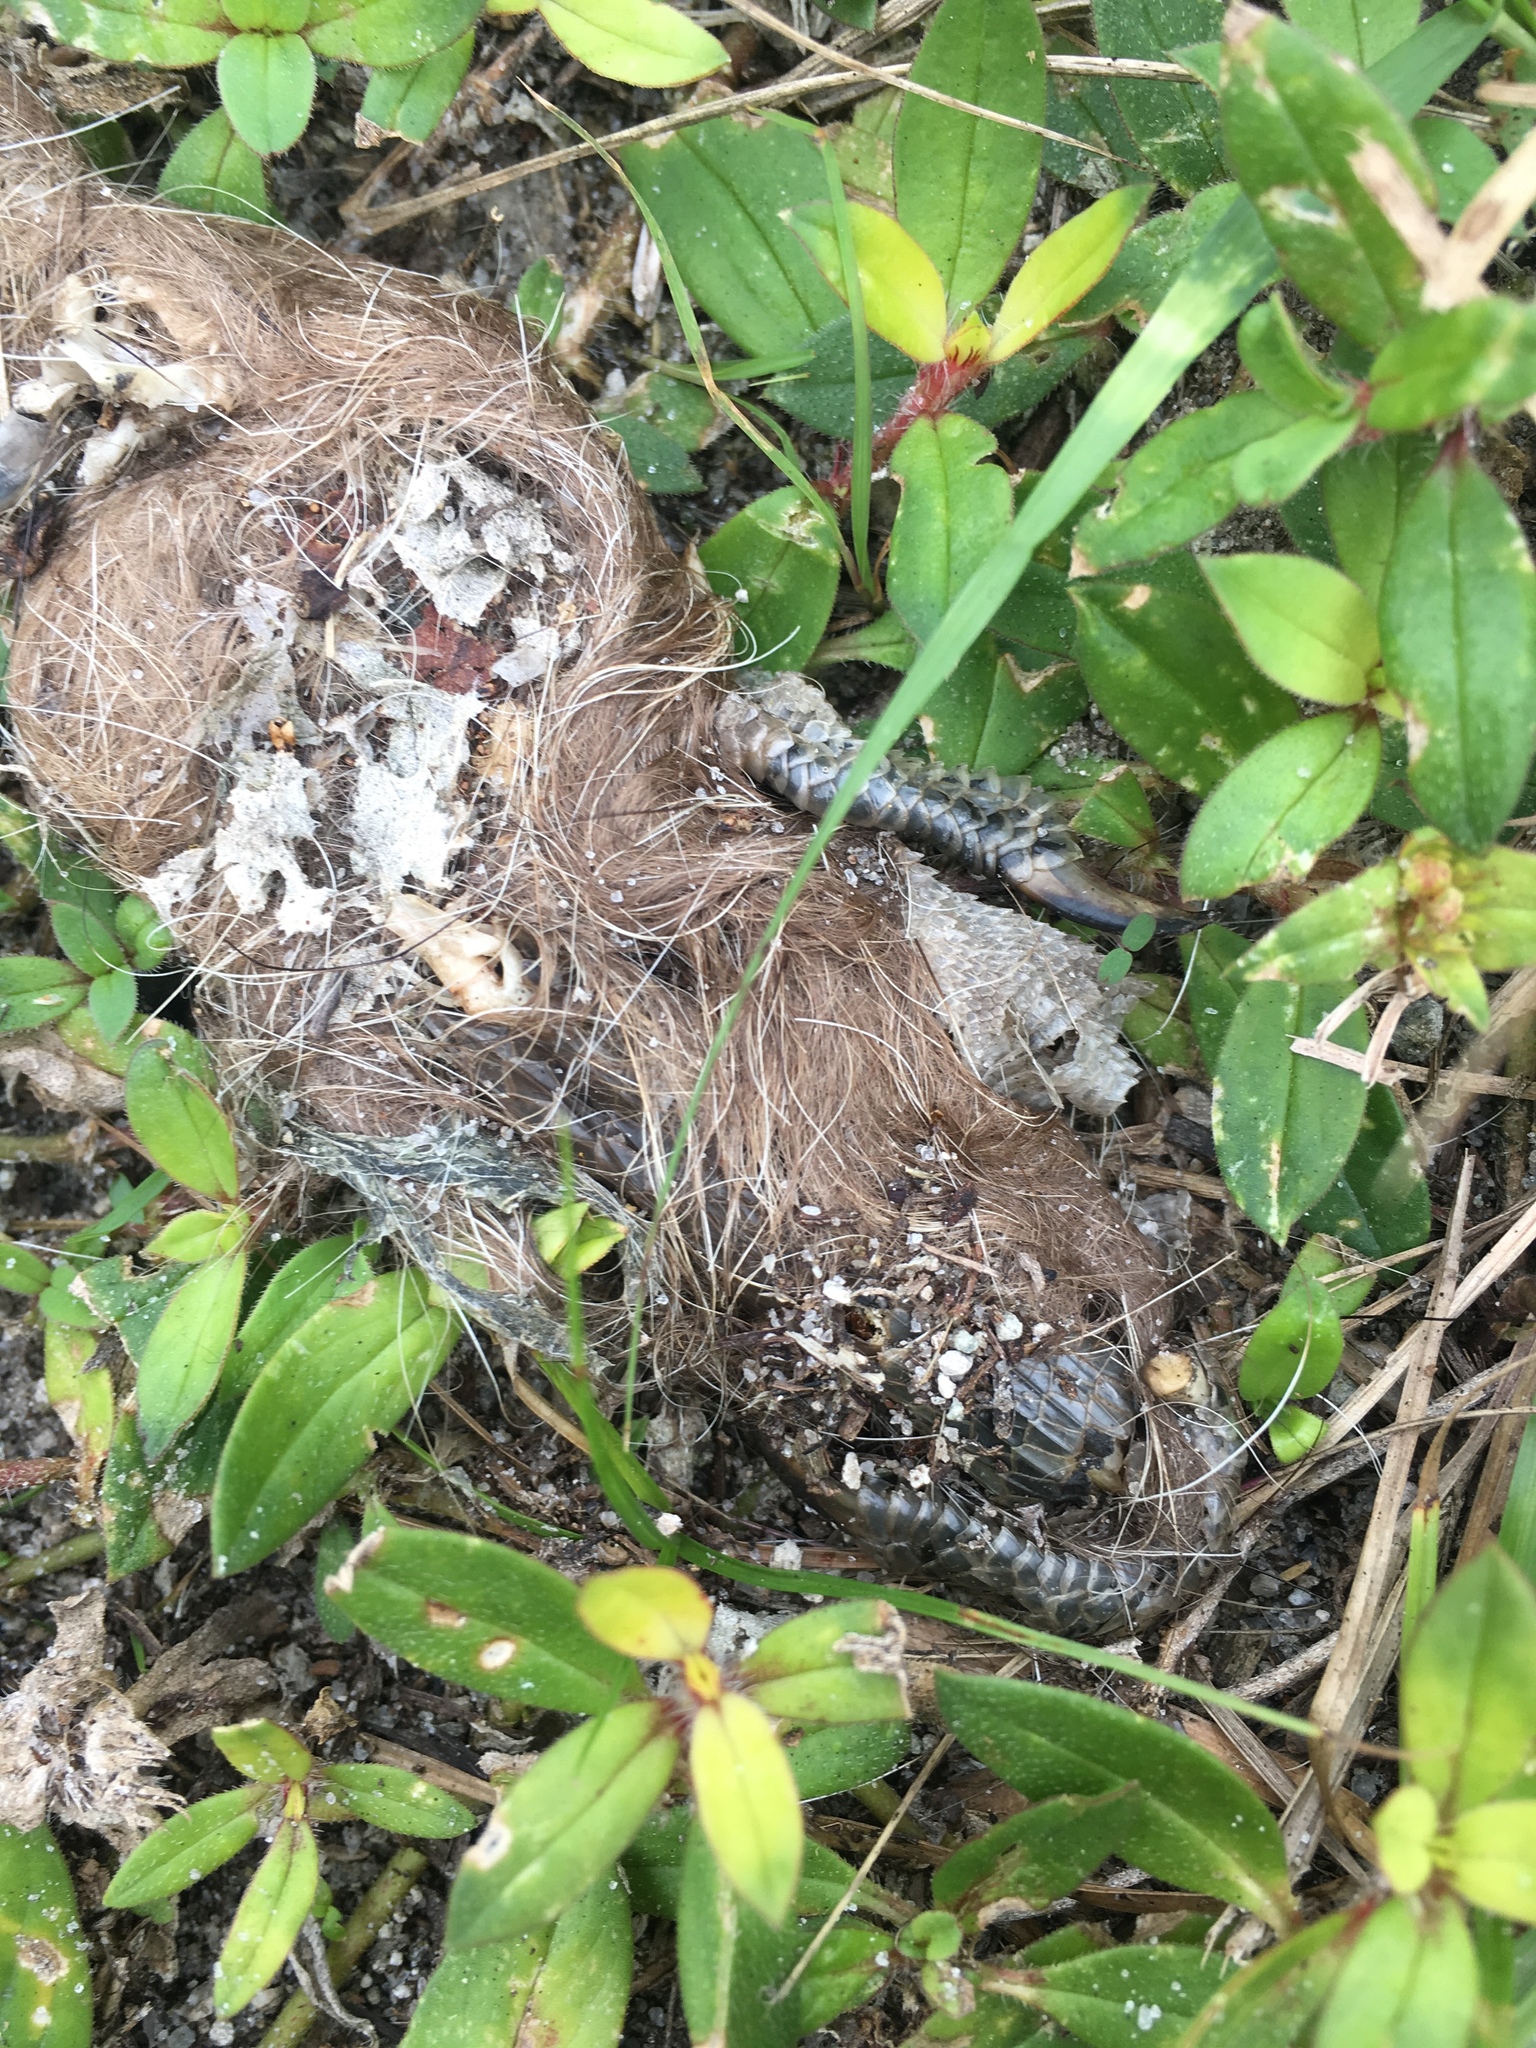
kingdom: Animalia
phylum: Chordata
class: Squamata
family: Iguanidae
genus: Iguana
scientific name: Iguana iguana
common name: Green iguana
